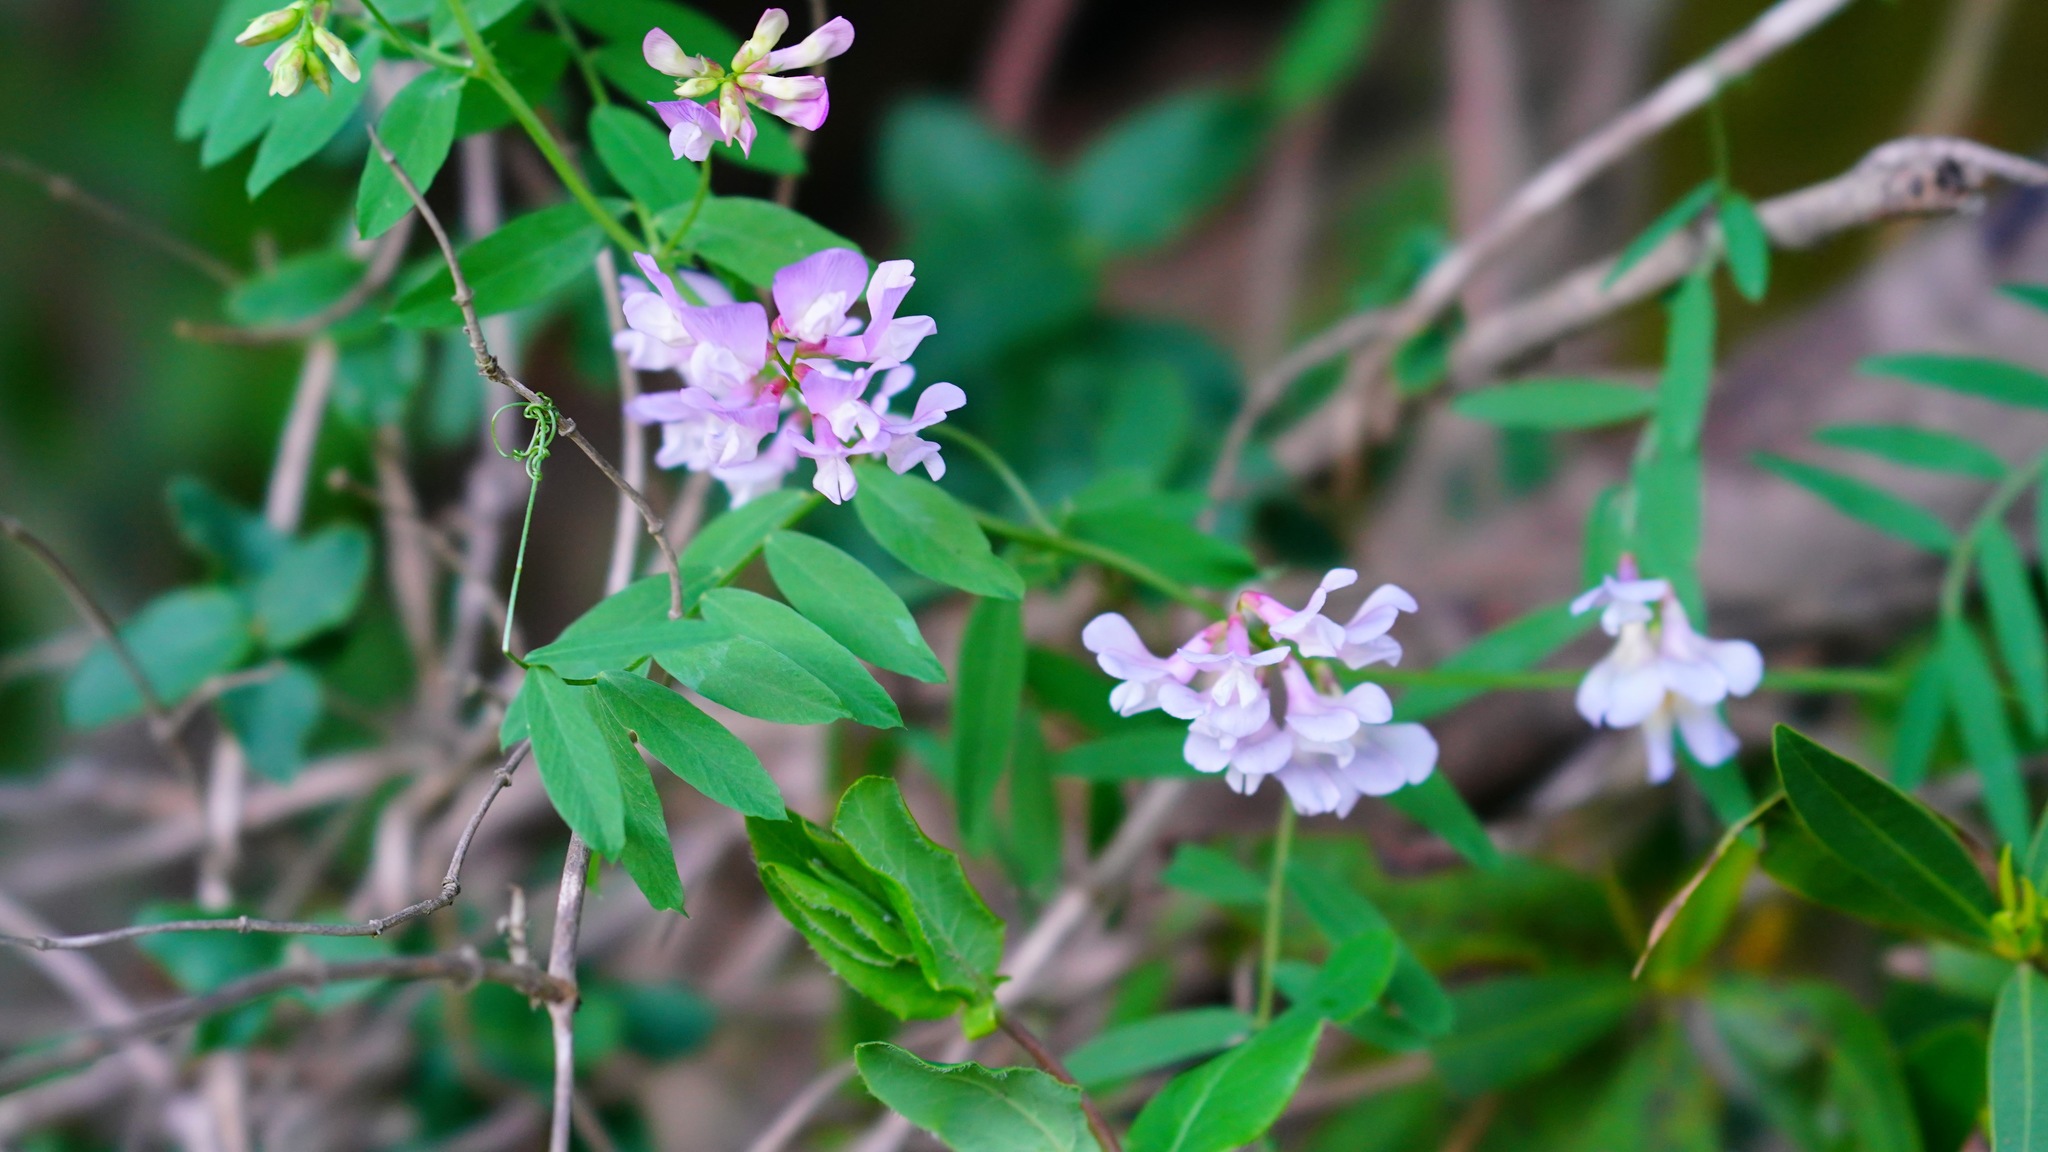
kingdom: Plantae
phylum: Tracheophyta
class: Magnoliopsida
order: Fabales
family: Fabaceae
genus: Vicia
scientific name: Vicia americana
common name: American vetch
